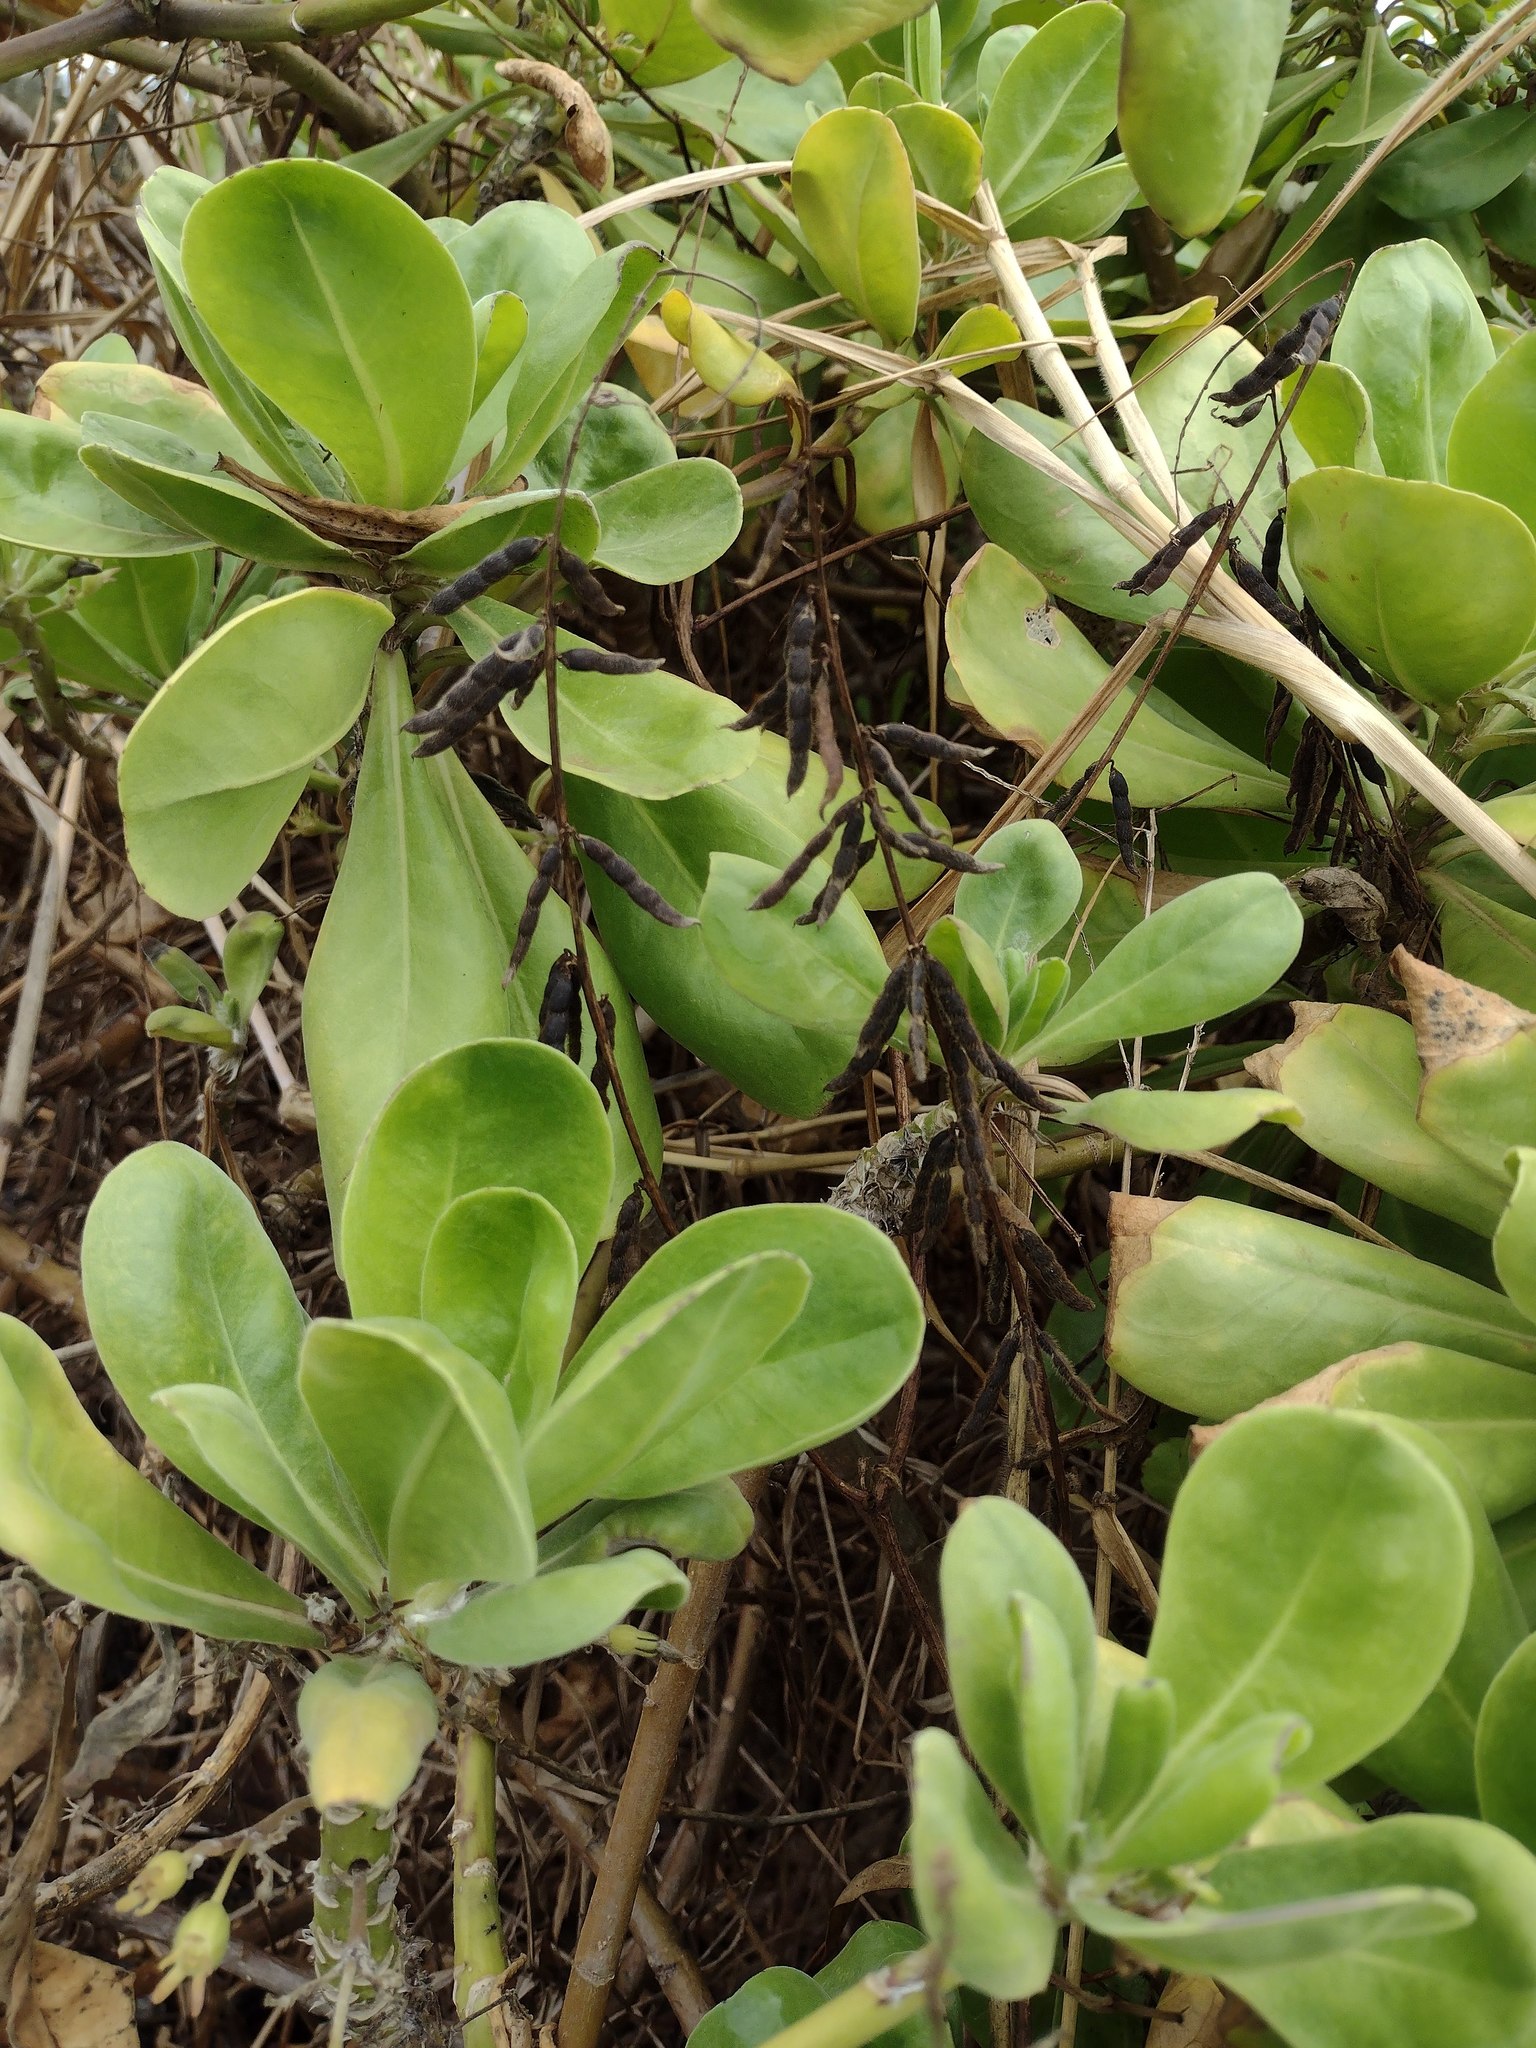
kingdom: Plantae
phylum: Tracheophyta
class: Magnoliopsida
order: Asterales
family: Goodeniaceae
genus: Scaevola
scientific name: Scaevola taccada
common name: Sea lettucetree
